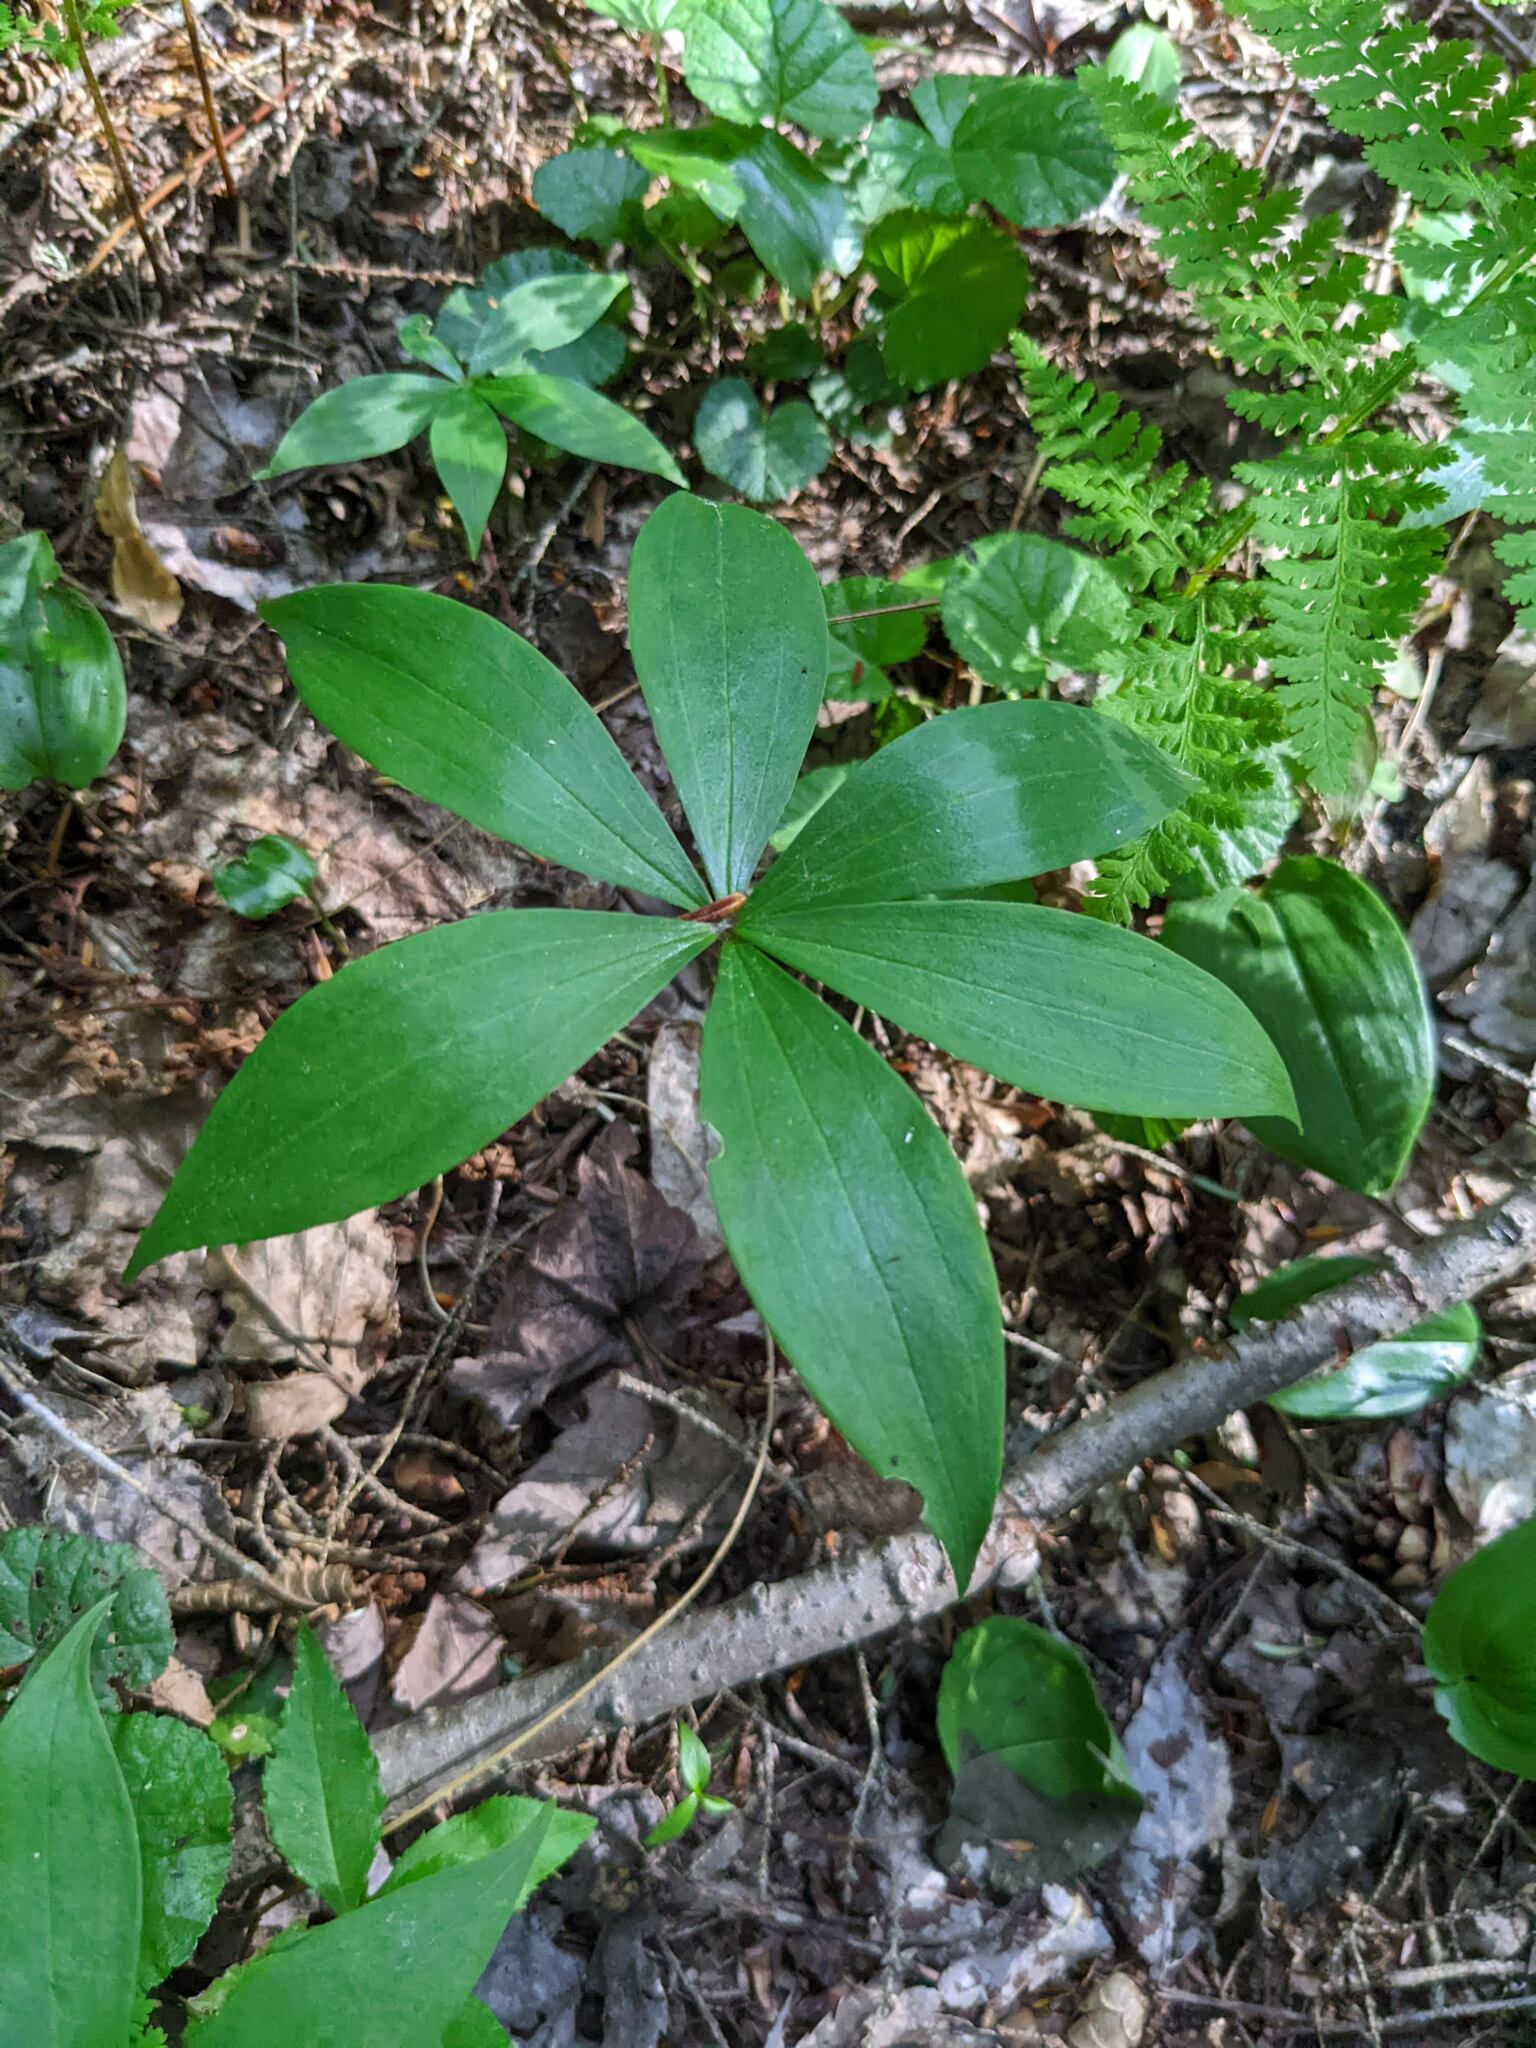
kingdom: Plantae
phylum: Tracheophyta
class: Liliopsida
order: Liliales
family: Liliaceae
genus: Medeola
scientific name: Medeola virginiana
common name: Indian cucumber-root
